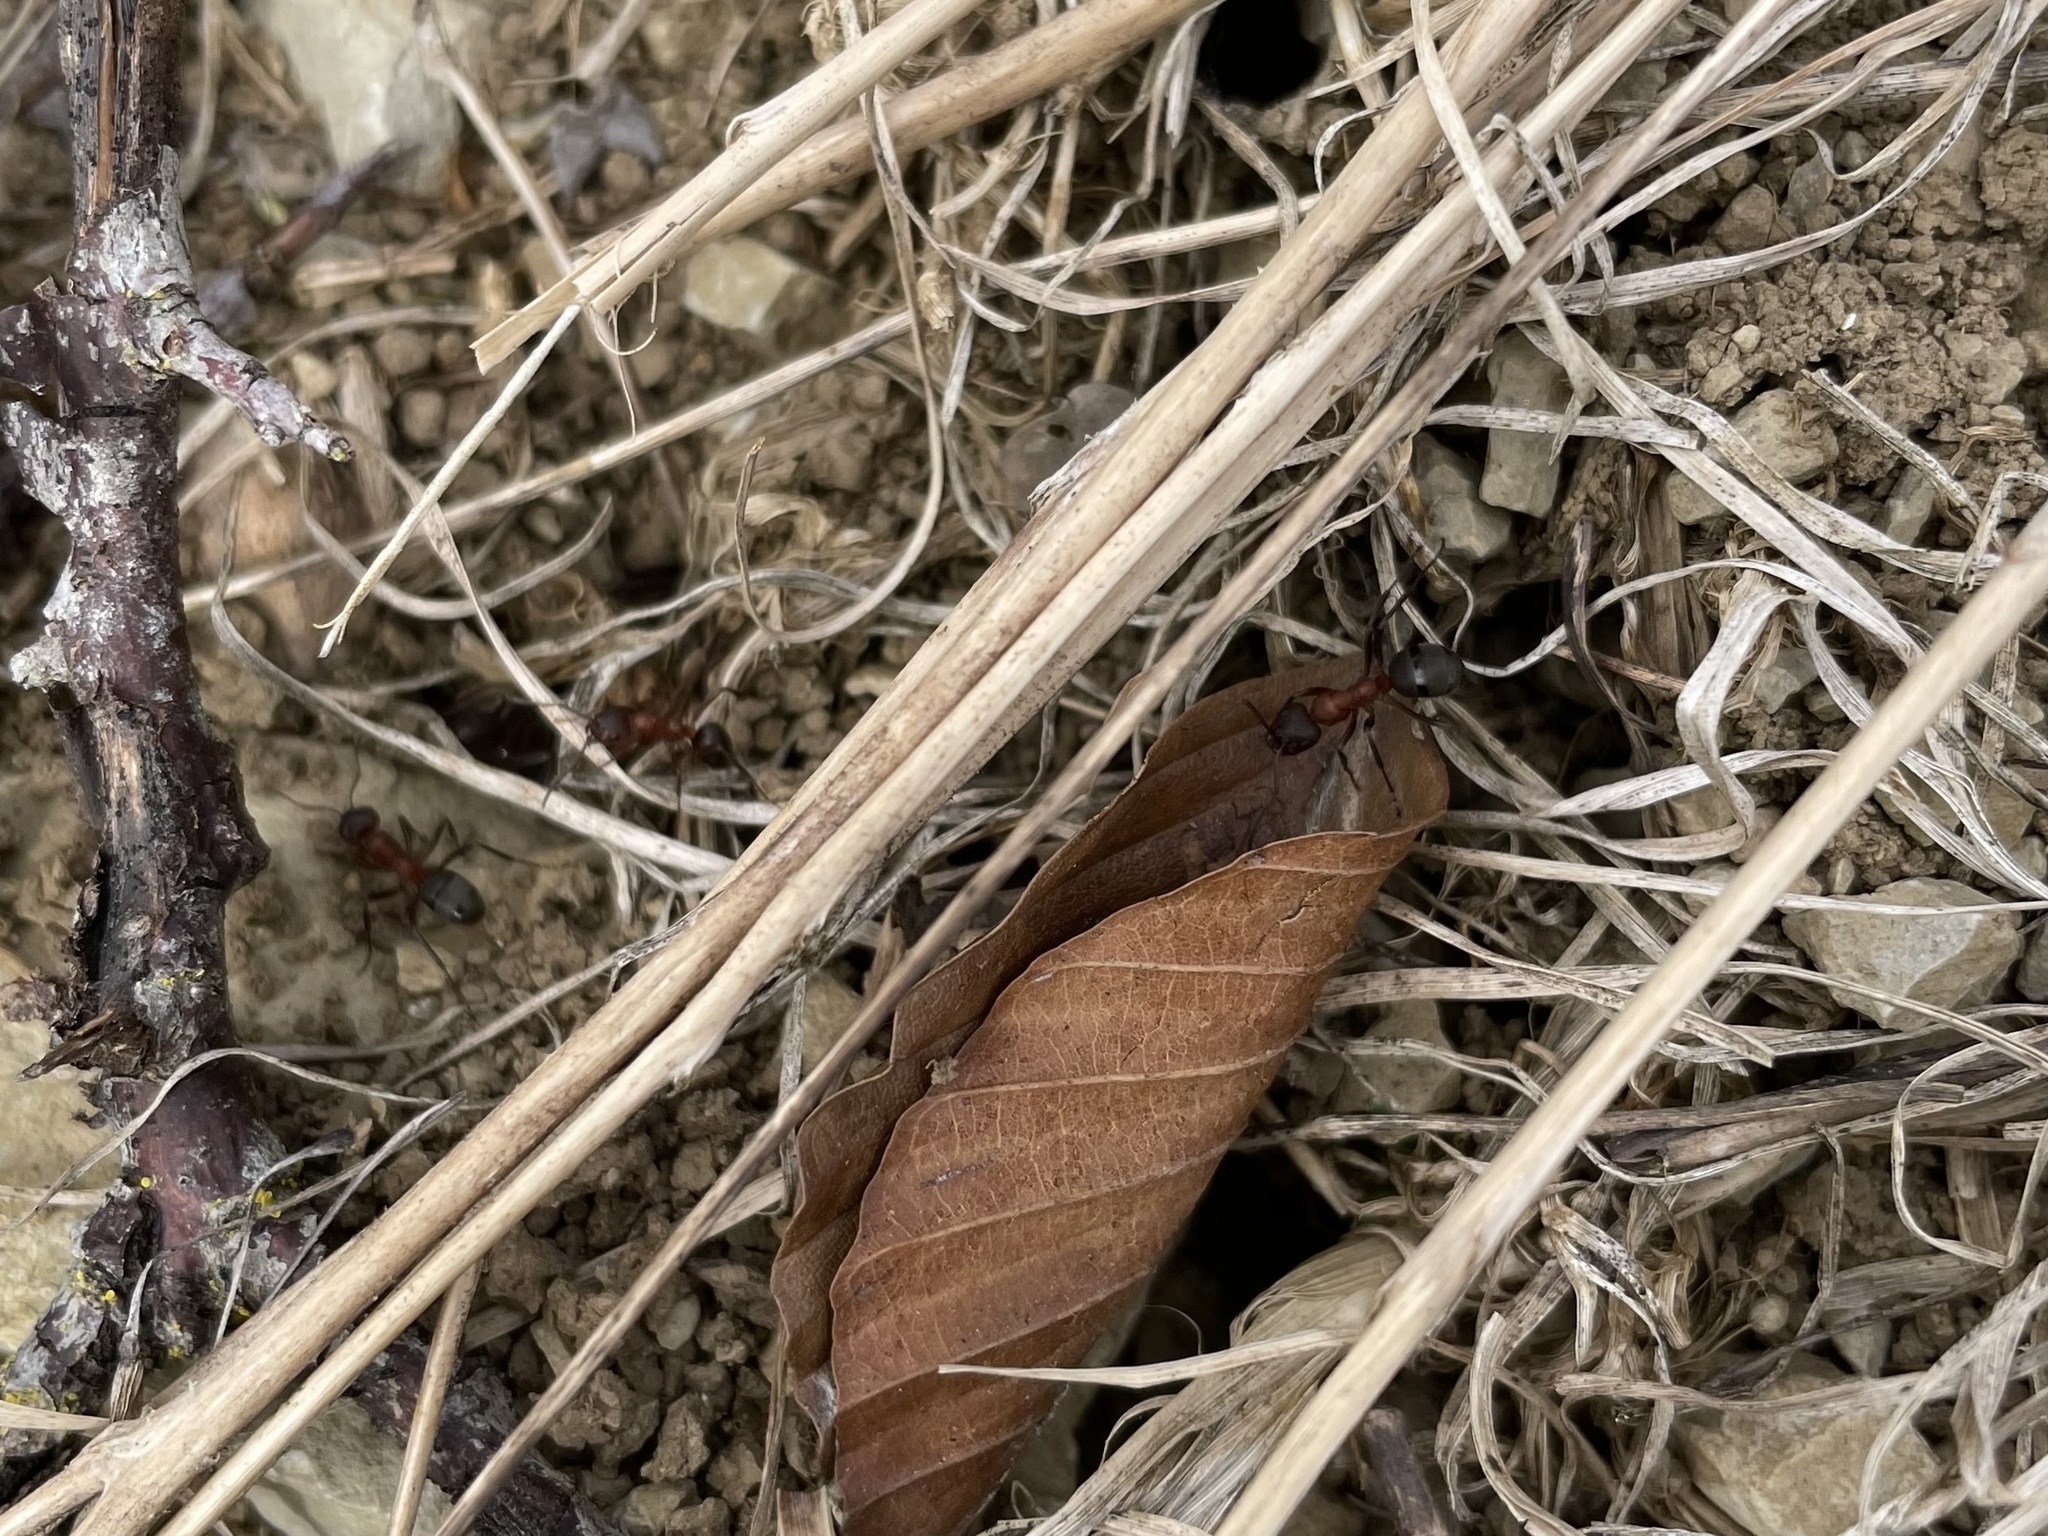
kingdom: Animalia
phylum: Arthropoda
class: Insecta
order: Hymenoptera
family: Formicidae
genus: Formica
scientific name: Formica sanguinea
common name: Blood-red ant
